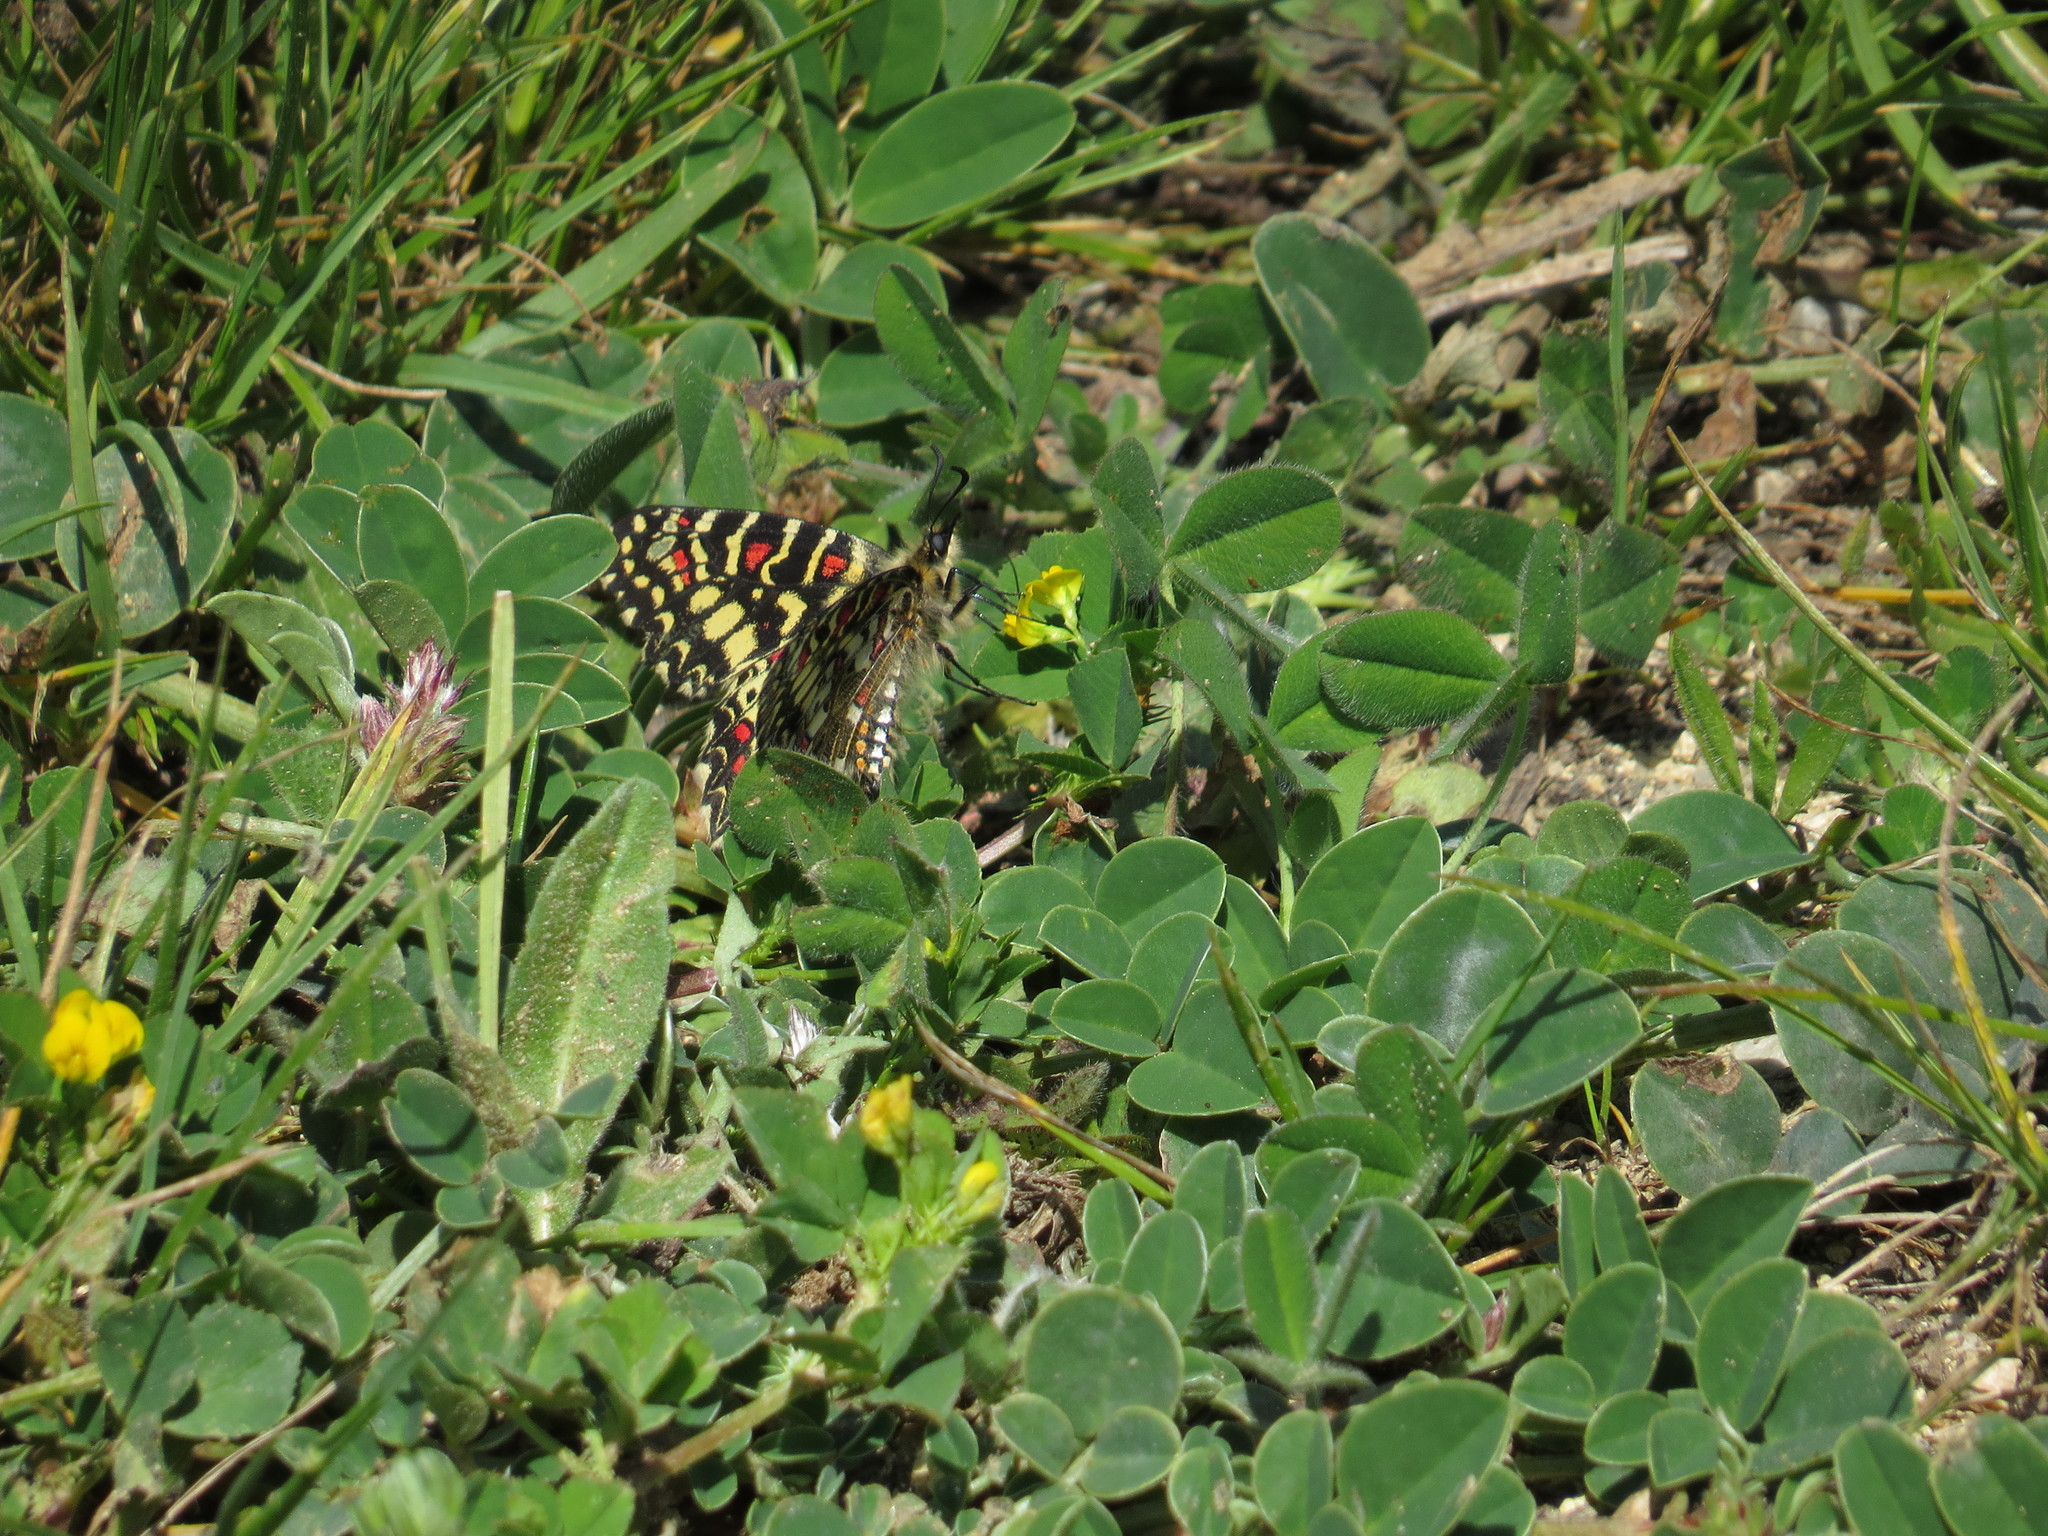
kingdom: Animalia
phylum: Arthropoda
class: Insecta
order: Lepidoptera
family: Papilionidae
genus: Zerynthia
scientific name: Zerynthia rumina
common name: Spanish festoon
